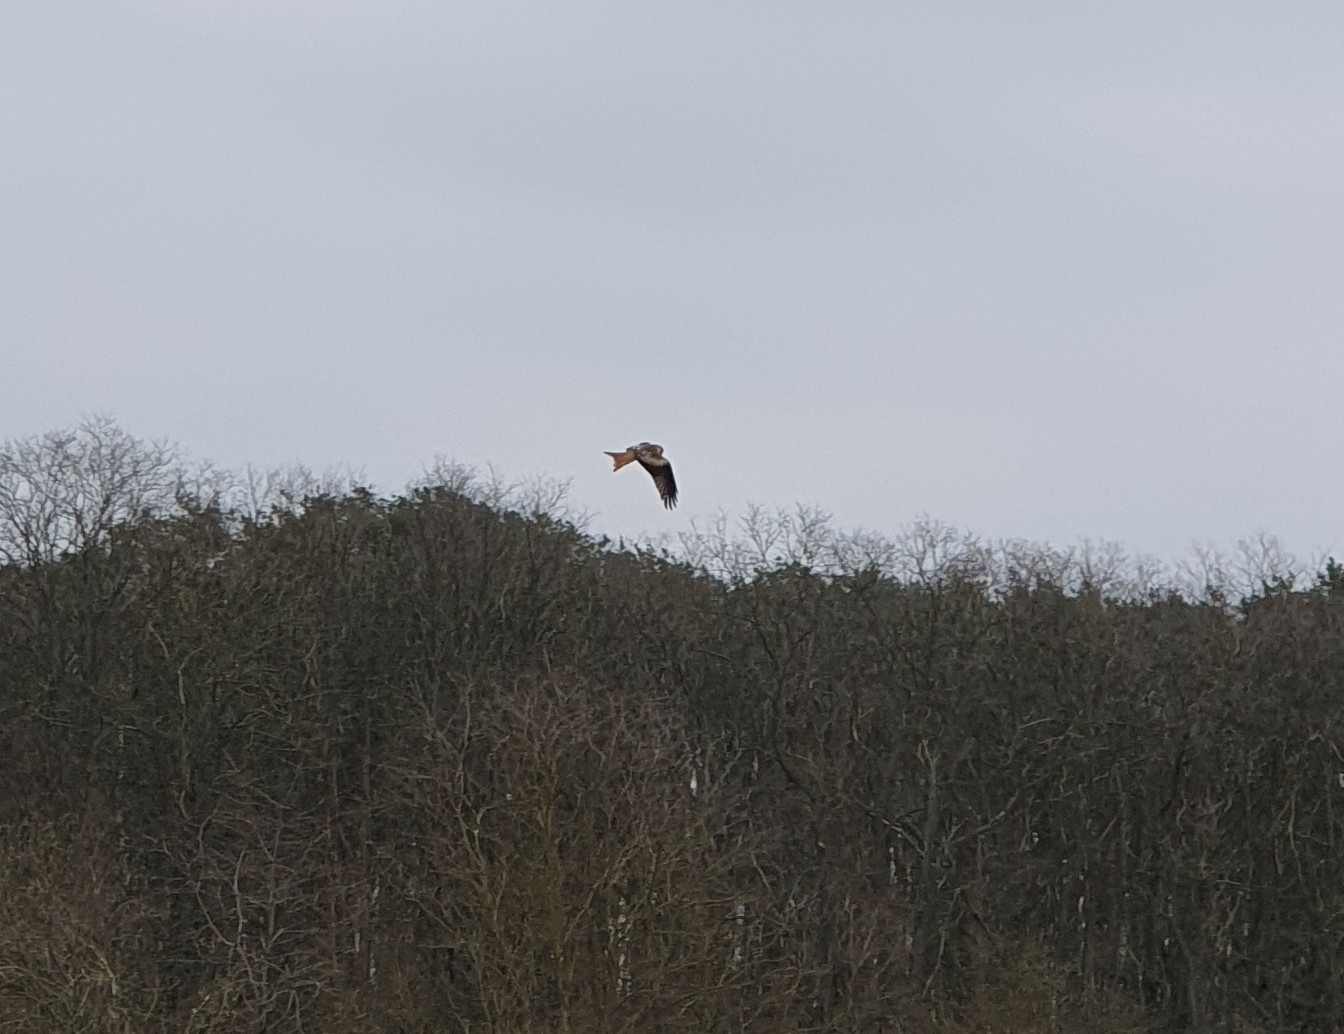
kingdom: Animalia
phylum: Chordata
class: Aves
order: Accipitriformes
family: Accipitridae
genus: Milvus
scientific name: Milvus milvus
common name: Red kite
